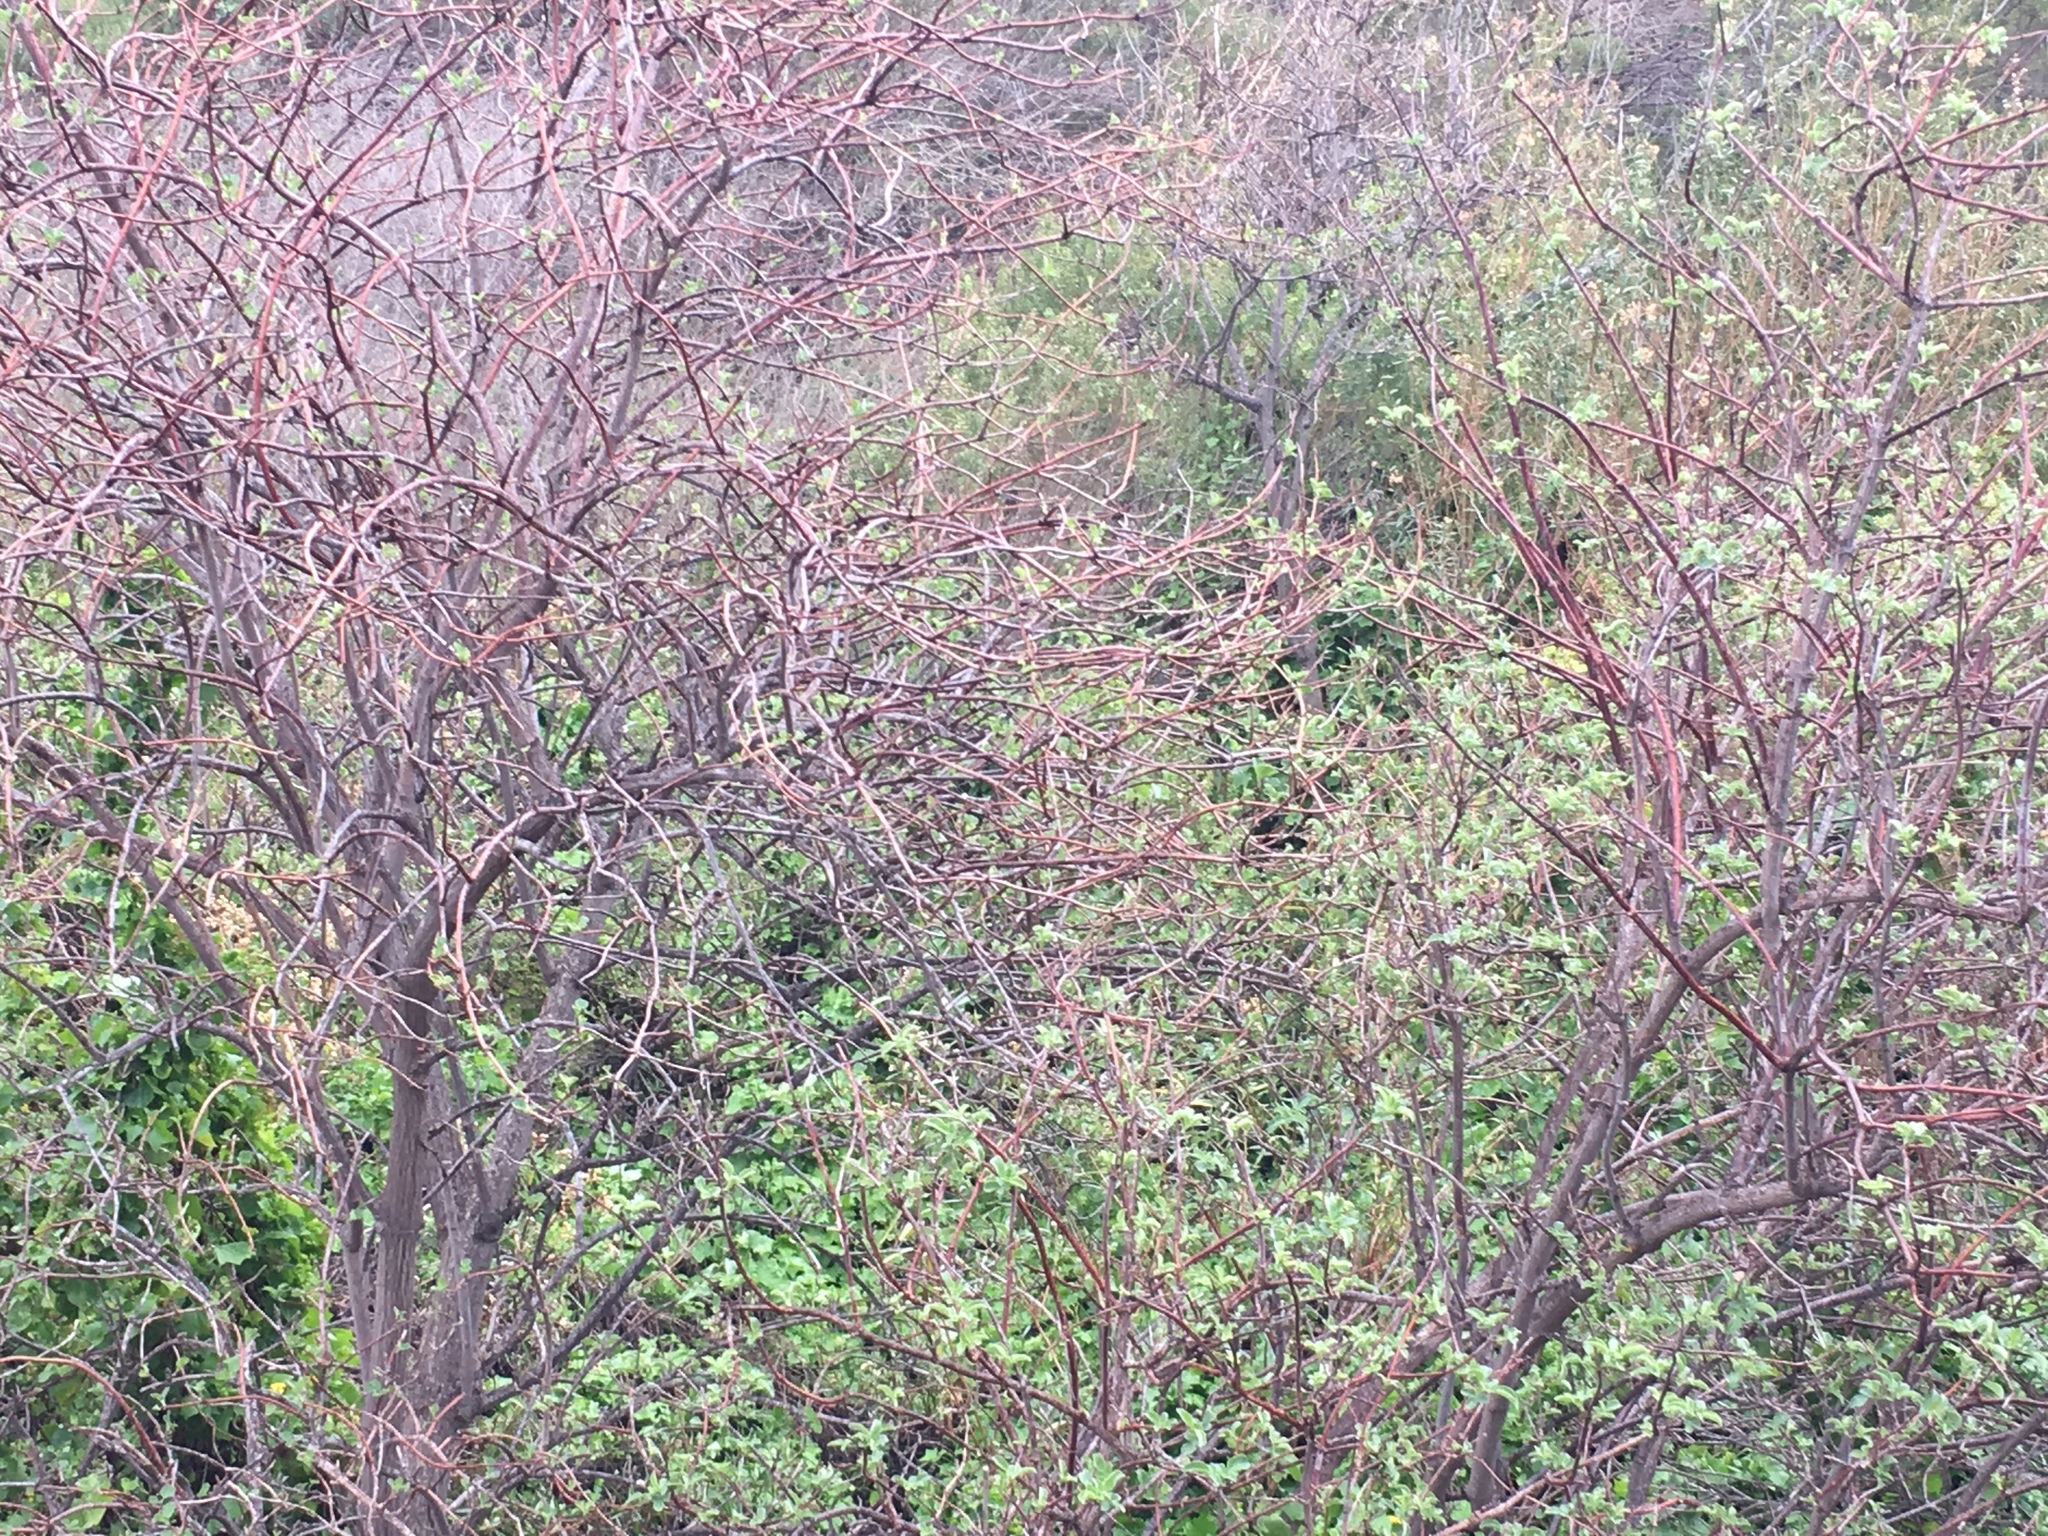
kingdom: Plantae
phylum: Tracheophyta
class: Magnoliopsida
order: Dipsacales
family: Viburnaceae
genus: Sambucus
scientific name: Sambucus cerulea
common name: Blue elder
